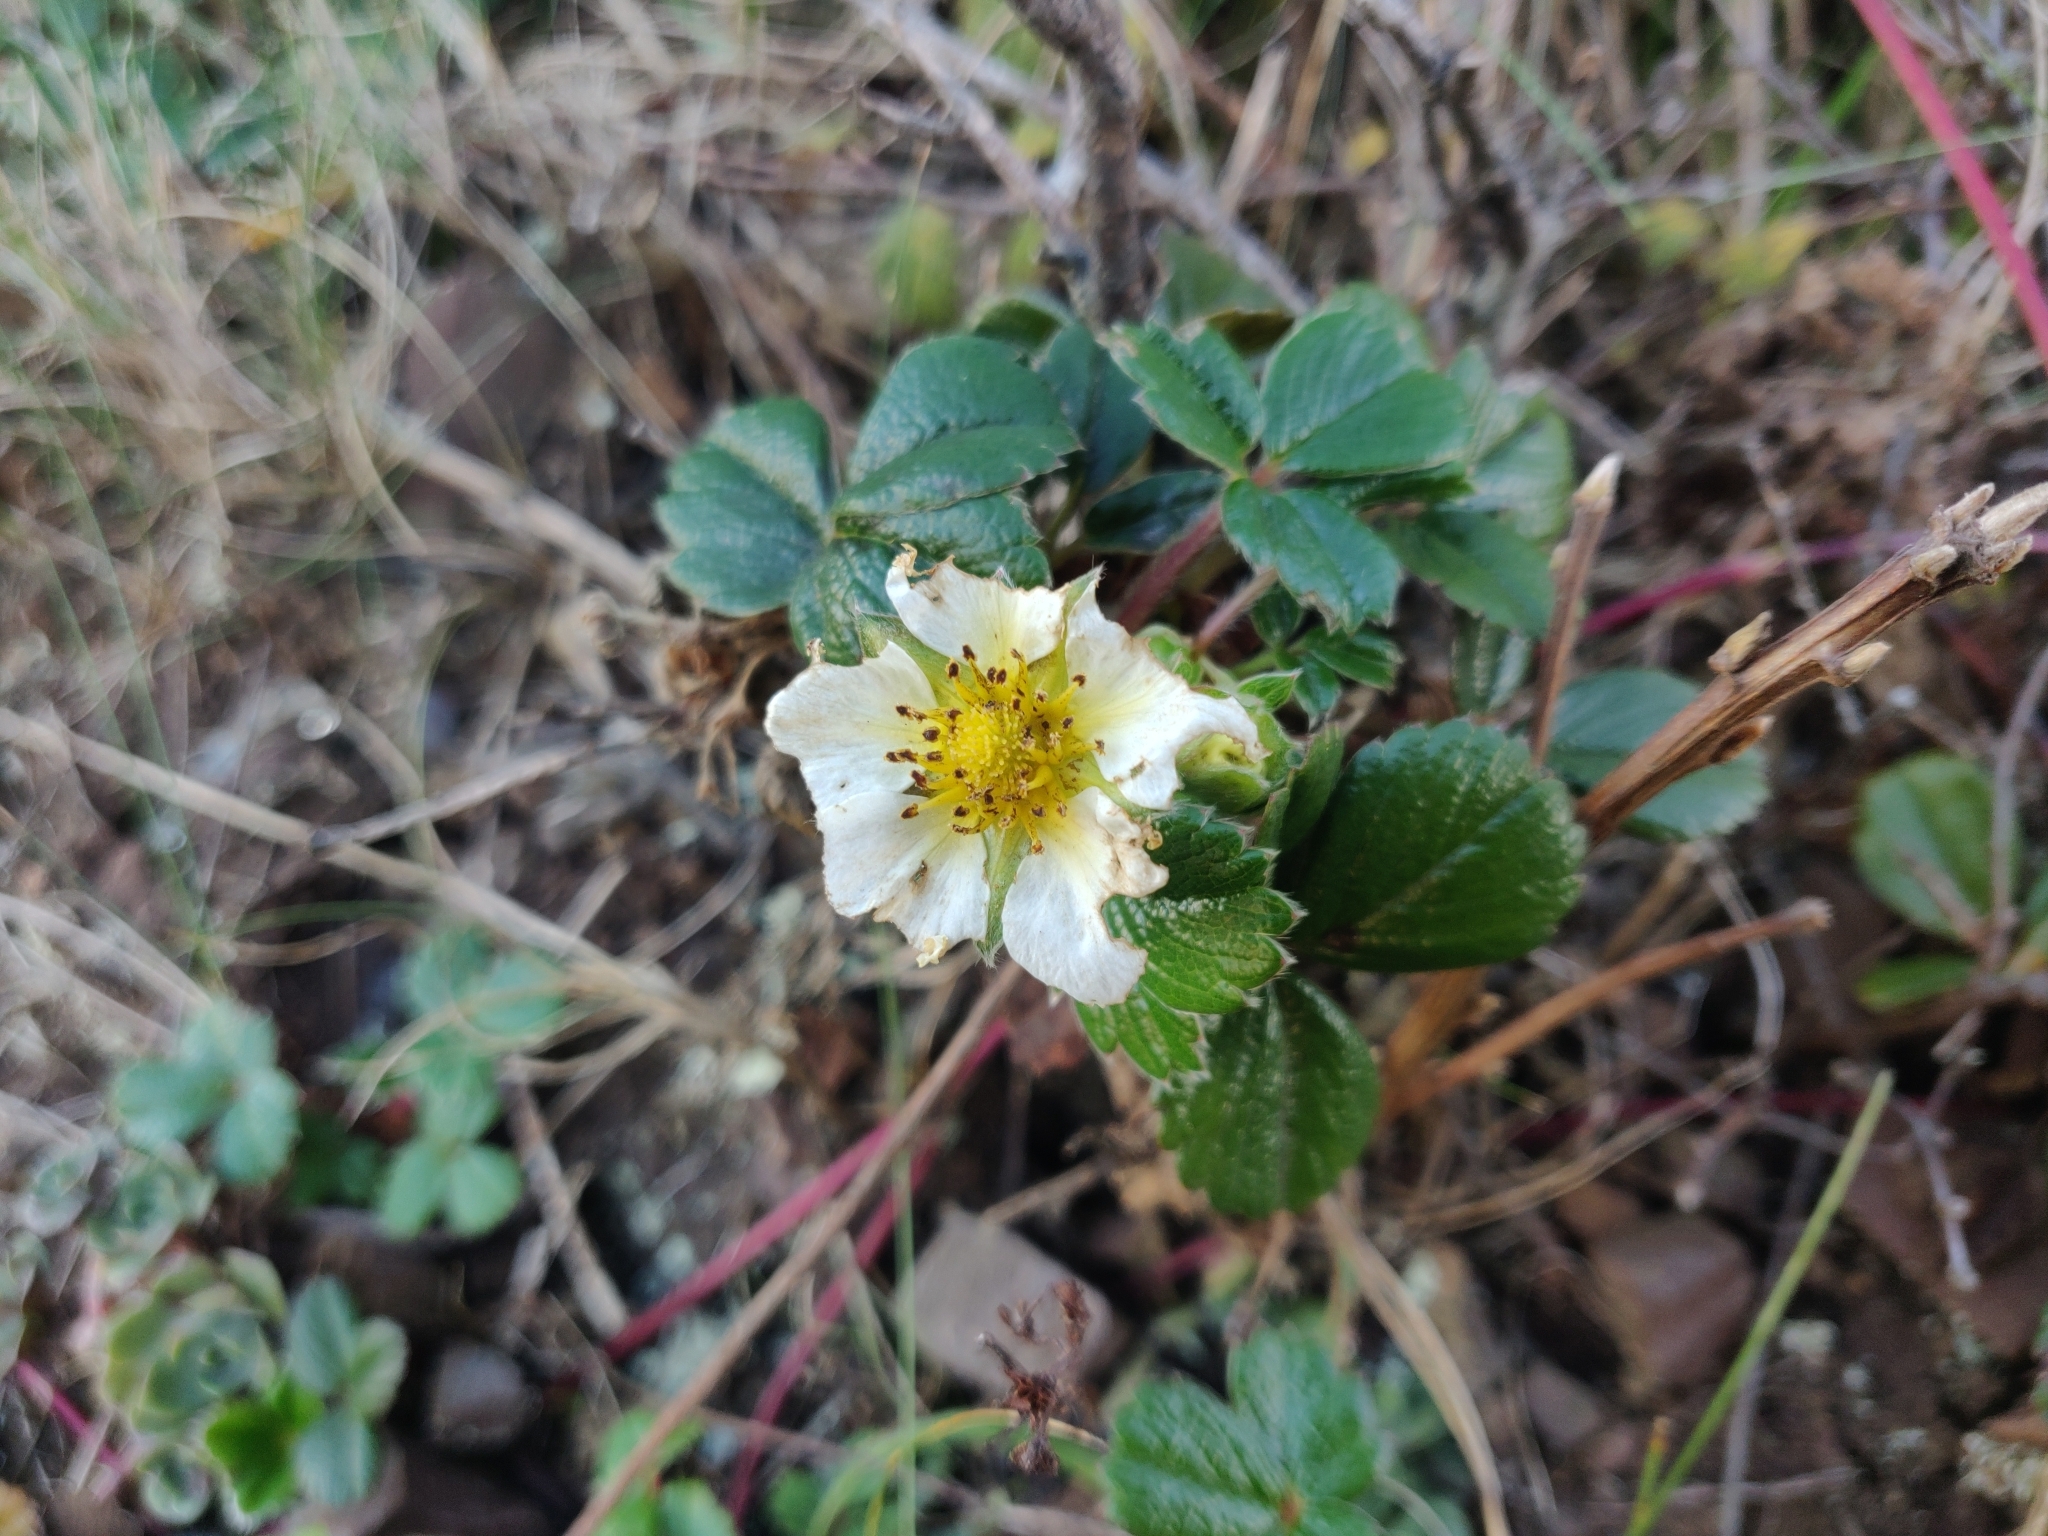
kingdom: Plantae
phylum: Tracheophyta
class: Magnoliopsida
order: Rosales
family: Rosaceae
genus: Fragaria
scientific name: Fragaria chiloensis
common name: Beach strawberry
